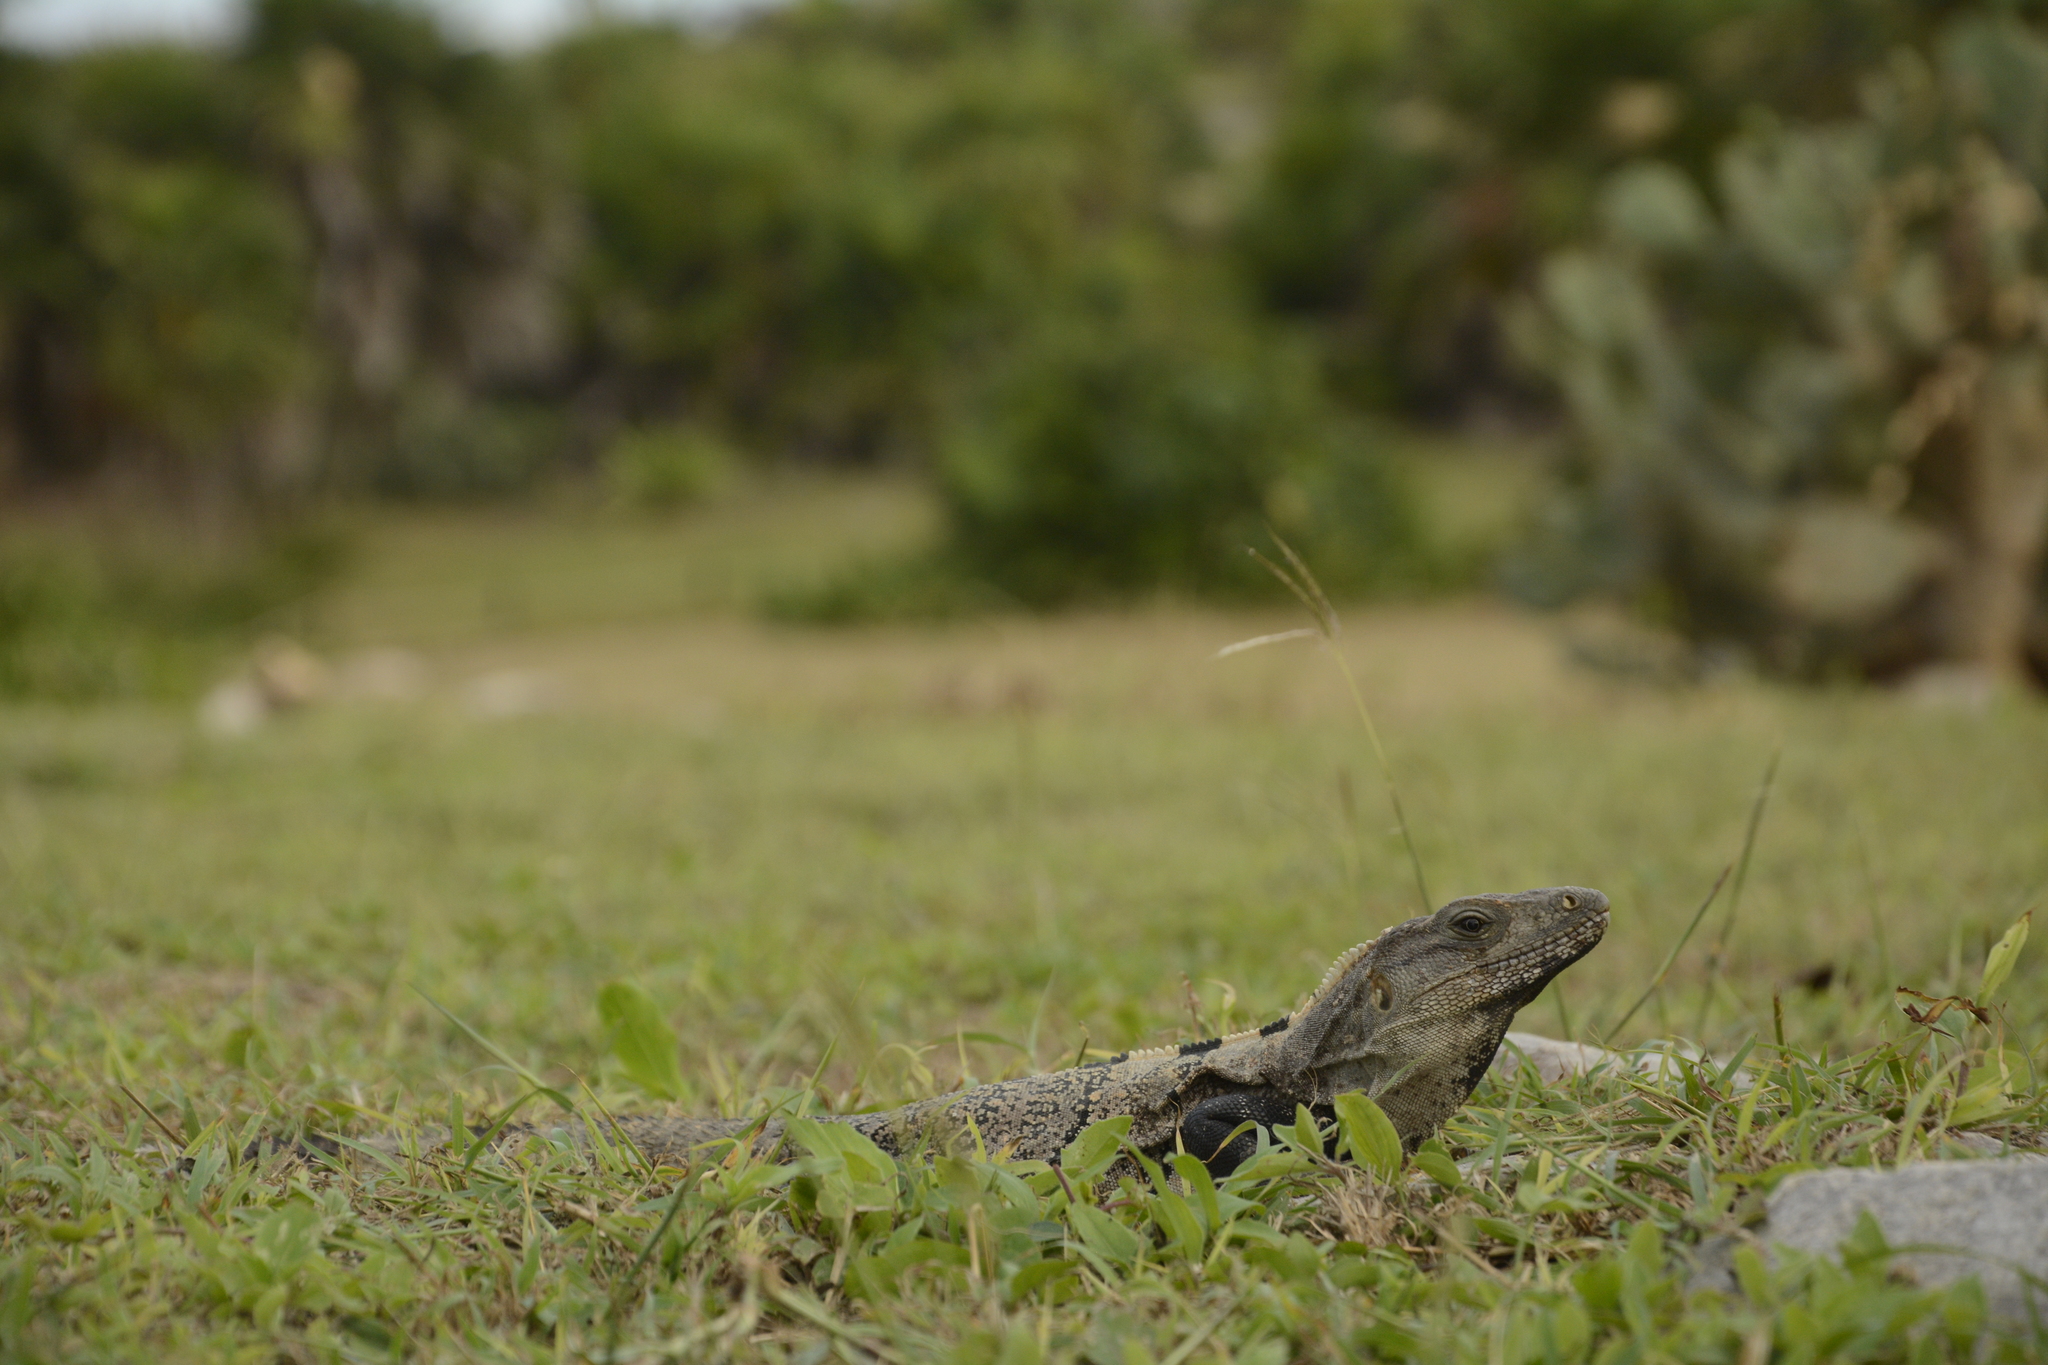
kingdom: Animalia
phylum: Chordata
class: Squamata
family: Iguanidae
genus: Ctenosaura
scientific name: Ctenosaura similis
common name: Black spiny-tailed iguana
